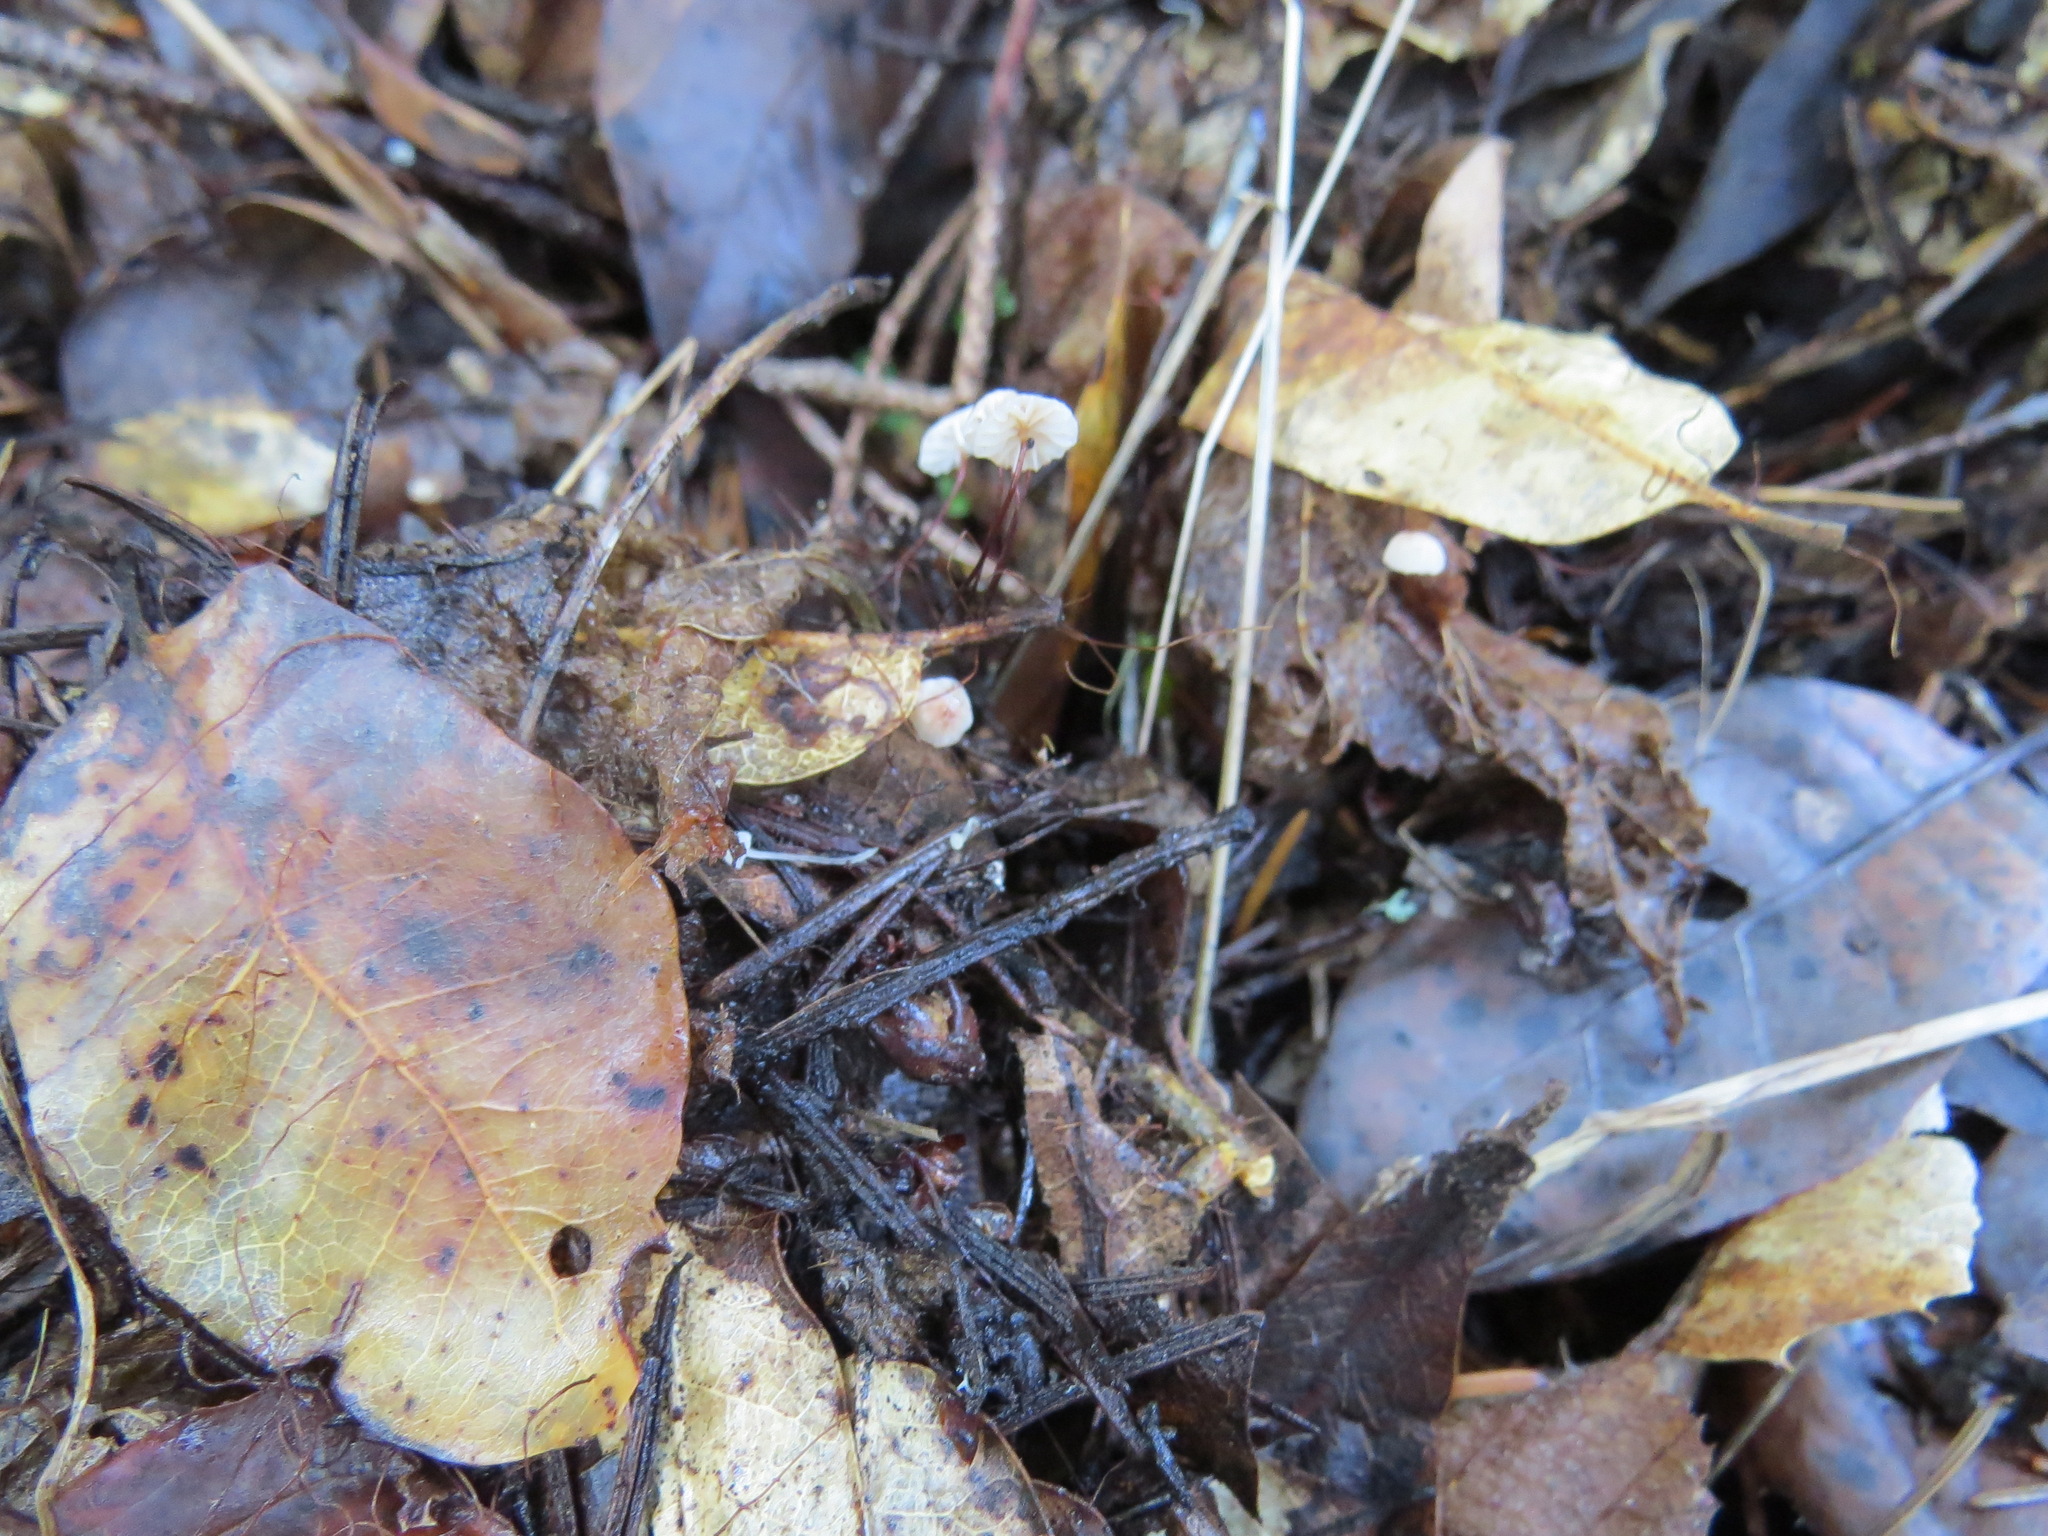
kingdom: Fungi
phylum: Basidiomycota
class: Agaricomycetes
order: Agaricales
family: Omphalotaceae
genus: Collybiopsis
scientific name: Collybiopsis quercophila
